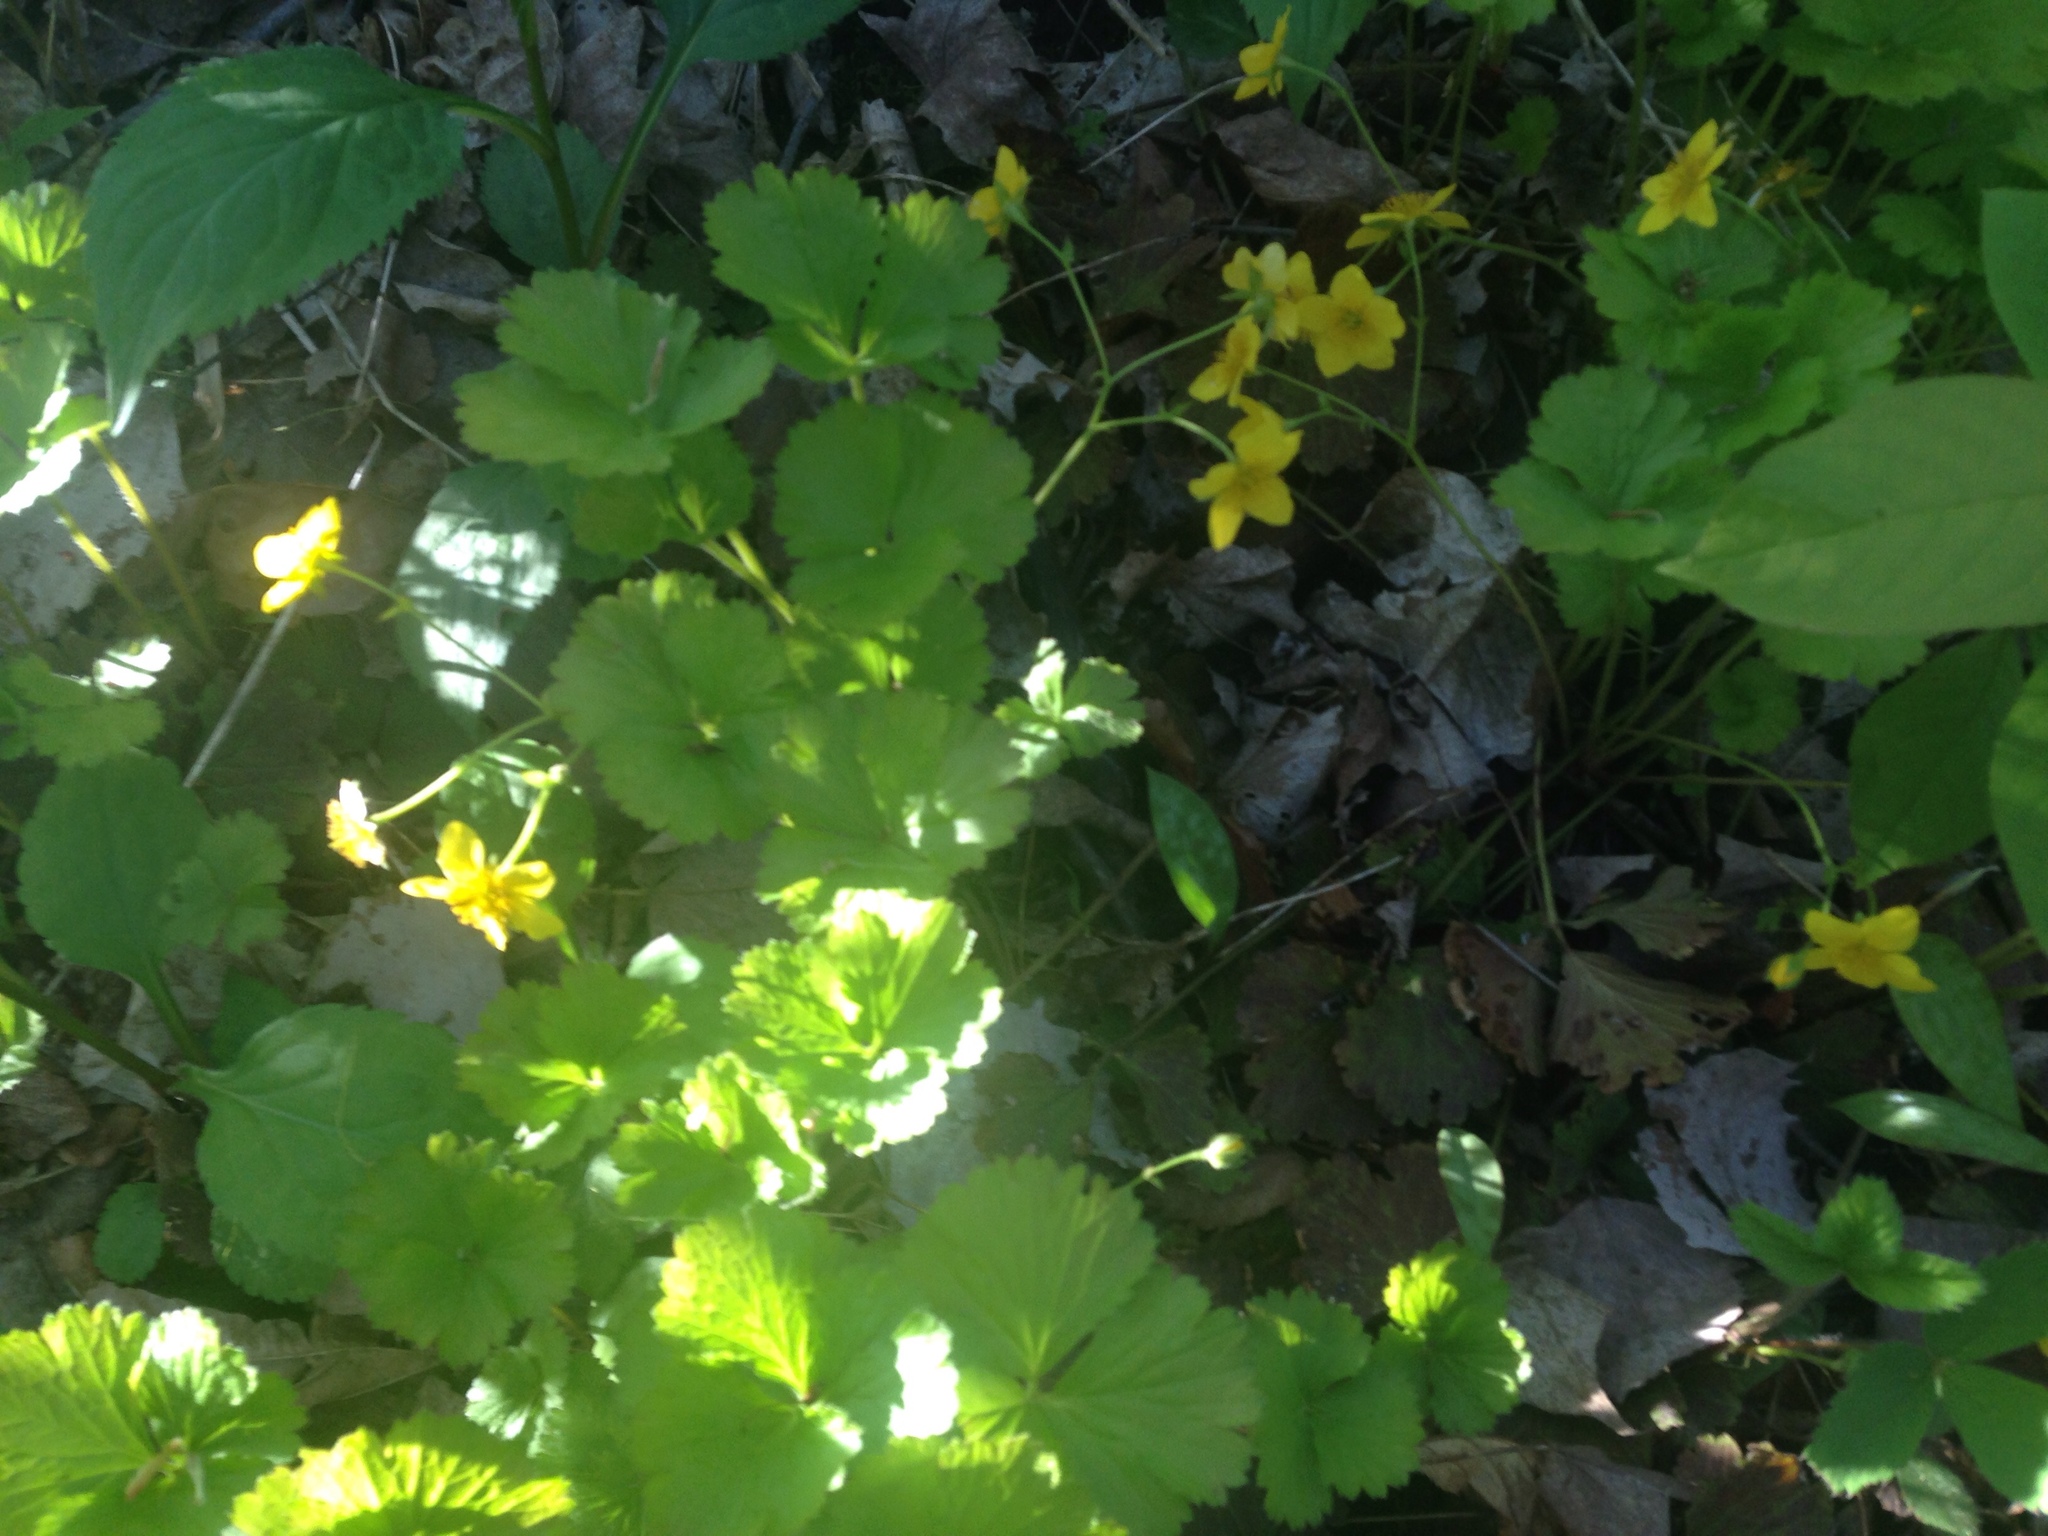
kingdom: Plantae
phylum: Tracheophyta
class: Magnoliopsida
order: Rosales
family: Rosaceae
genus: Geum
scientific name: Geum fragarioides
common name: Appalachian barren strawberry
